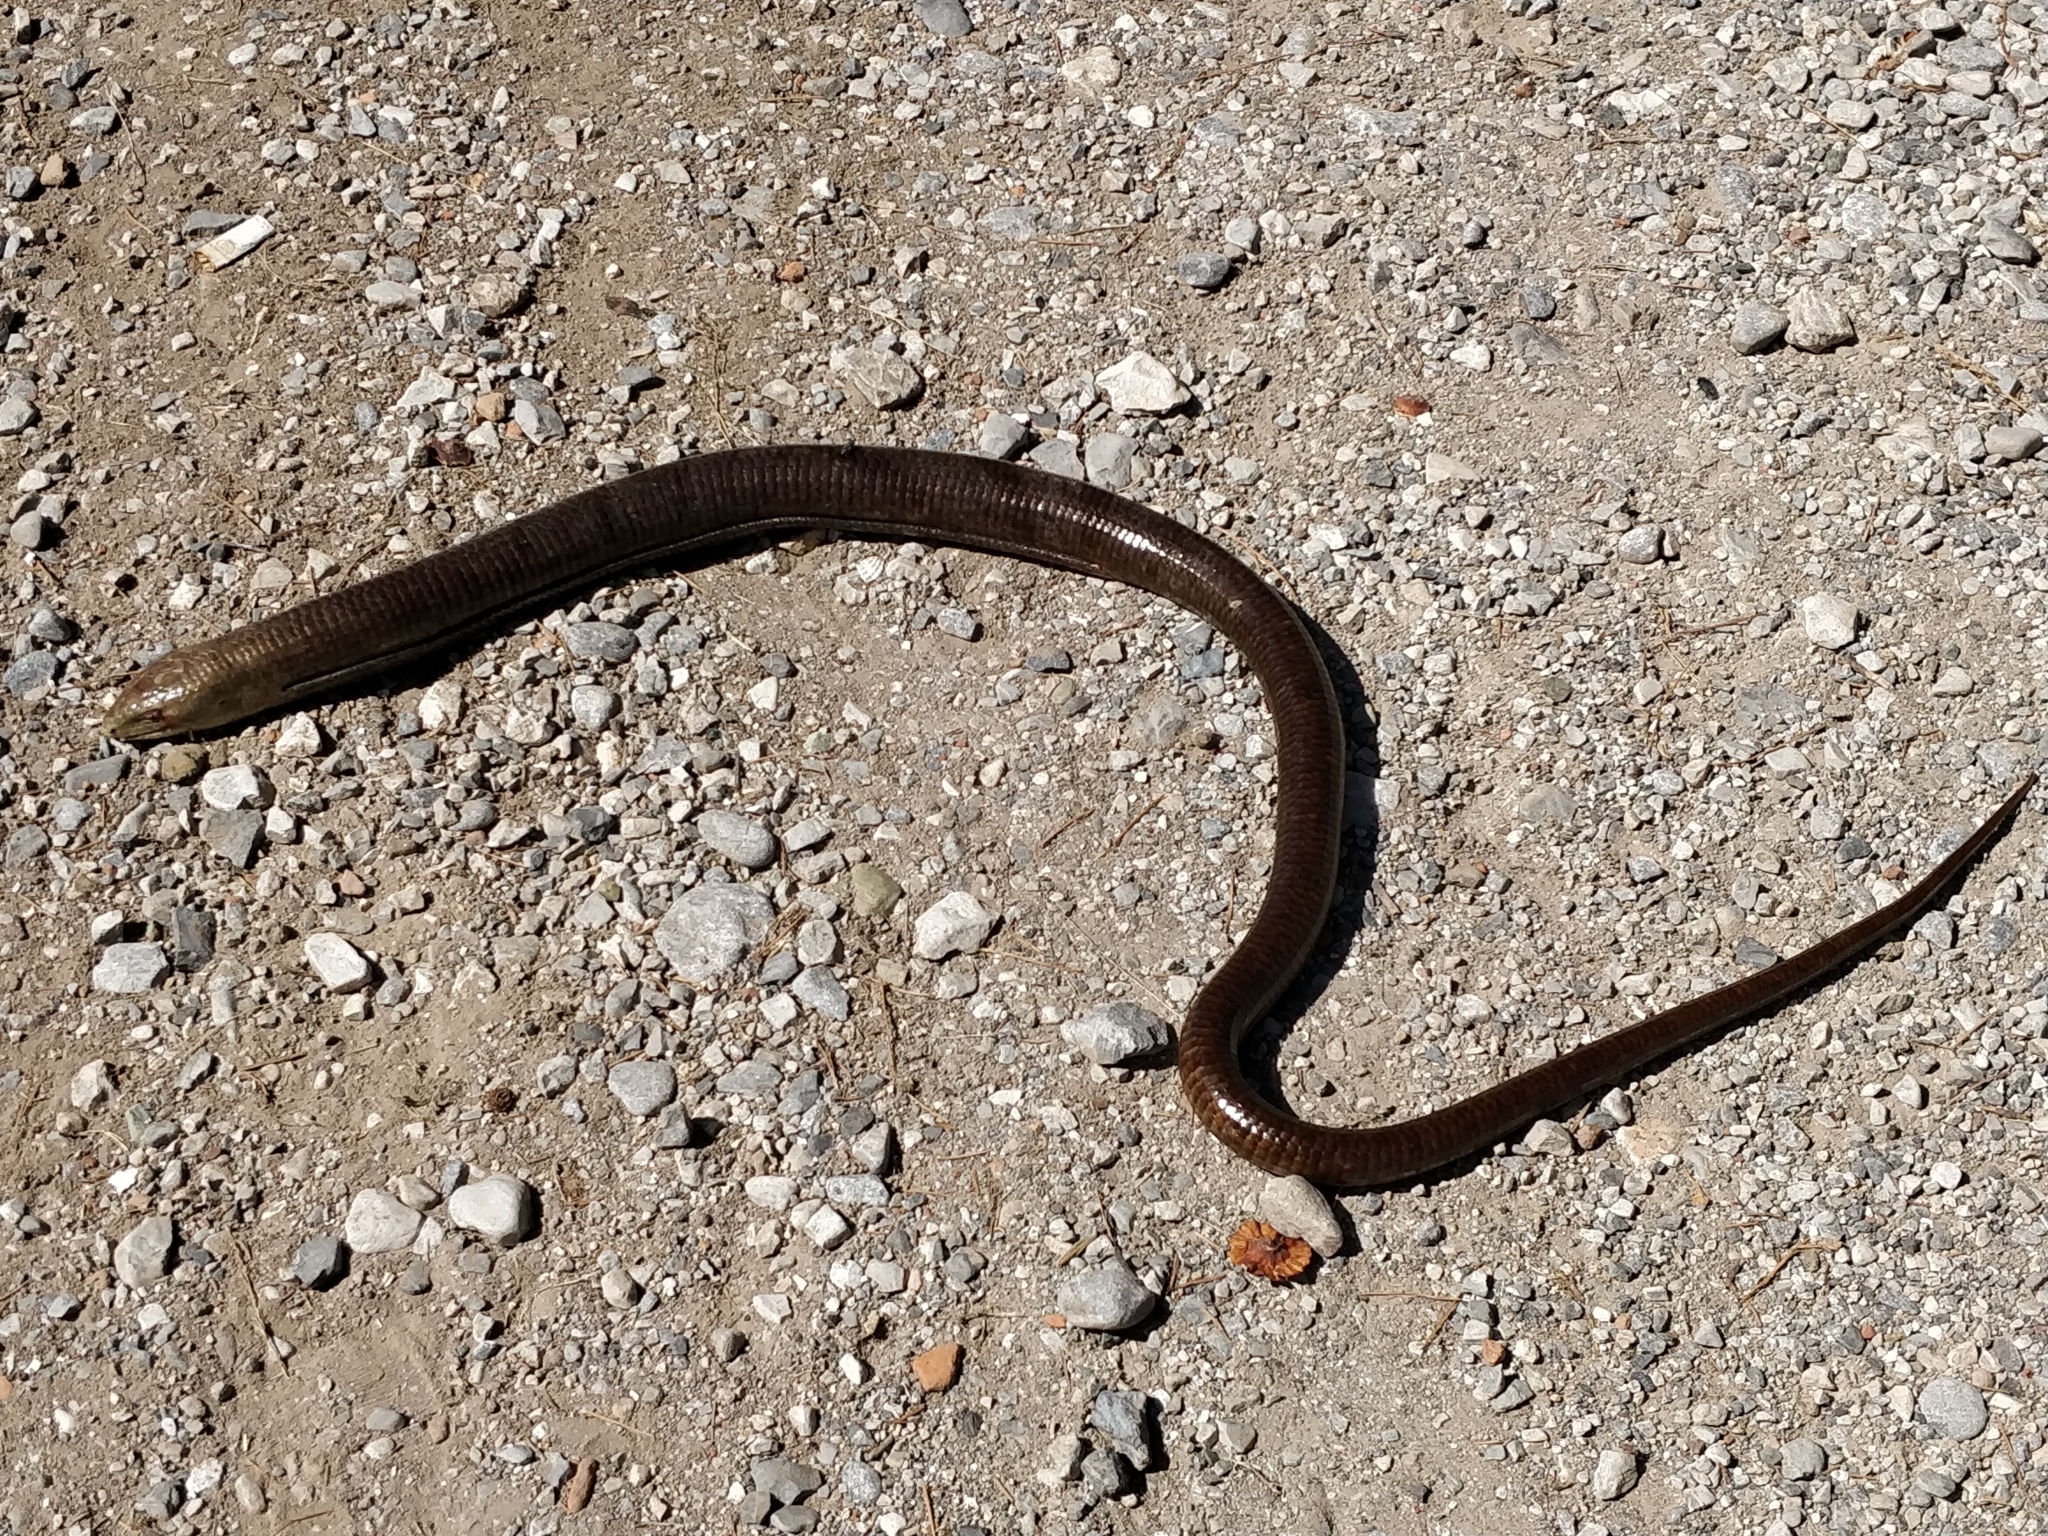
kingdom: Animalia
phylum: Chordata
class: Squamata
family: Anguidae
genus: Pseudopus
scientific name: Pseudopus apodus
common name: European glass lizard
